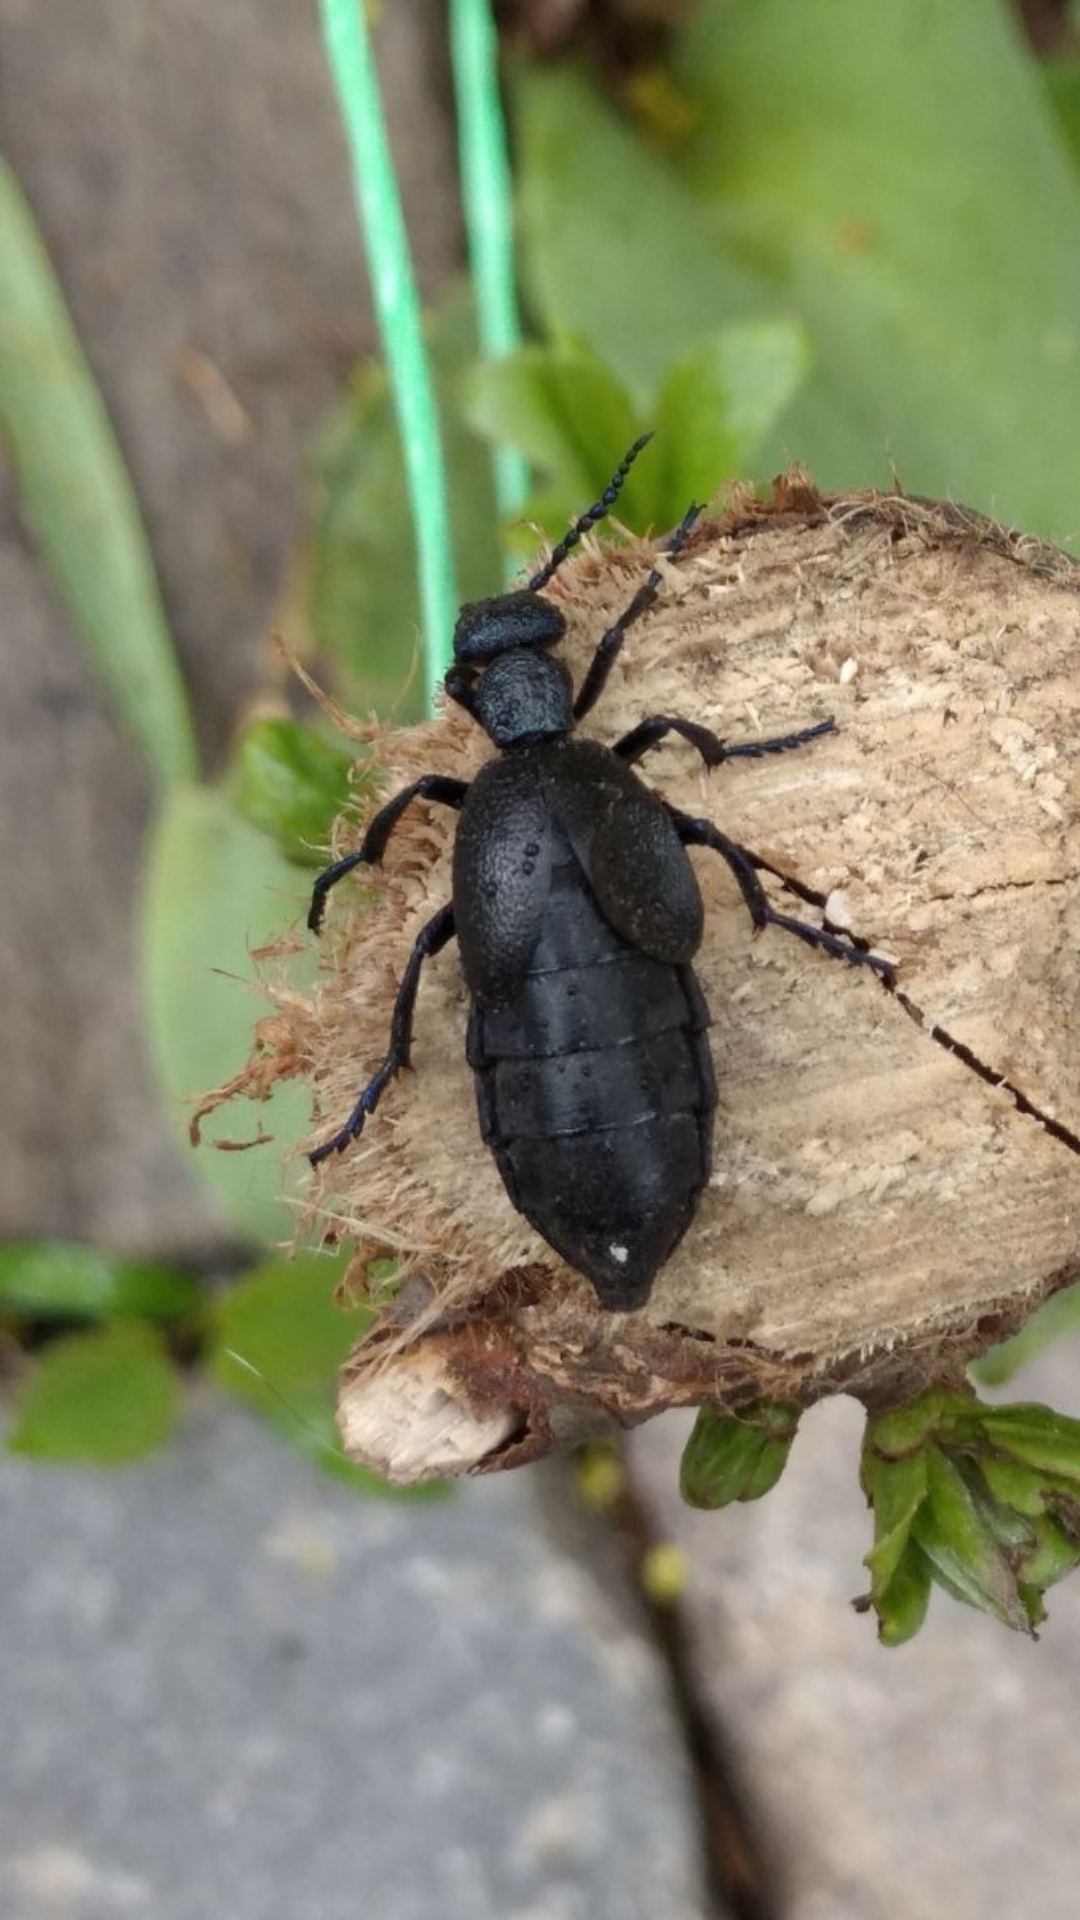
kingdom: Animalia
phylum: Arthropoda
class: Insecta
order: Coleoptera
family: Meloidae
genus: Meloe
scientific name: Meloe proscarabaeus
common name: Black oil-beetle
